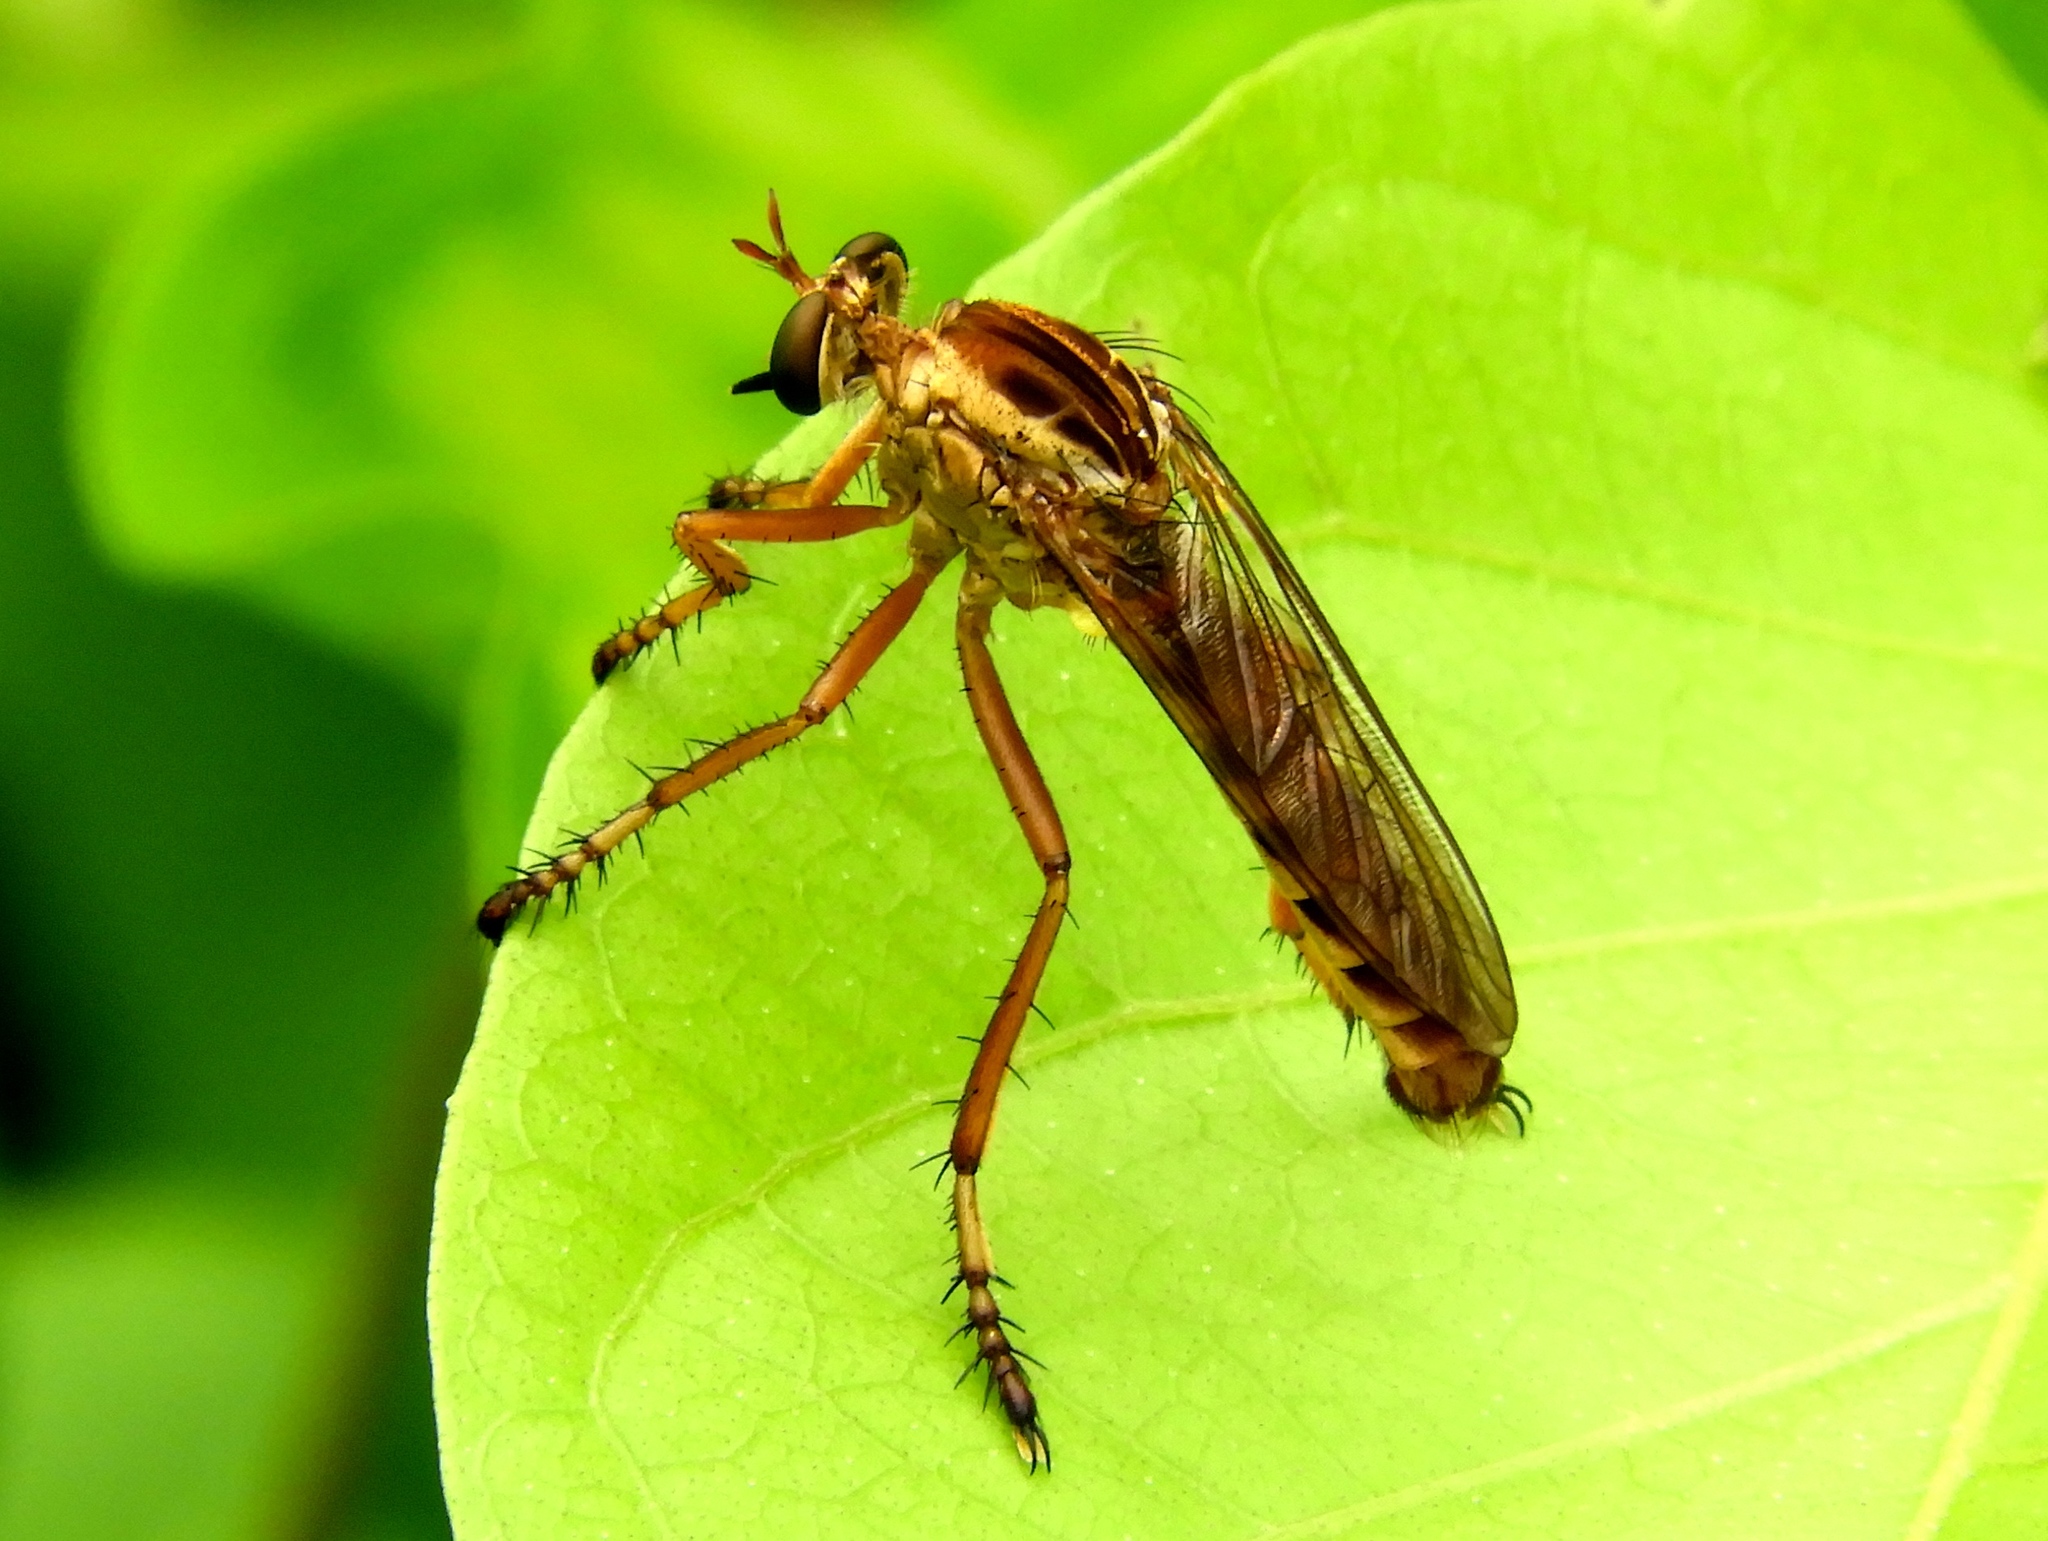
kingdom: Animalia
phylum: Arthropoda
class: Insecta
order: Diptera
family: Asilidae
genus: Diogmites
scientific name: Diogmites
